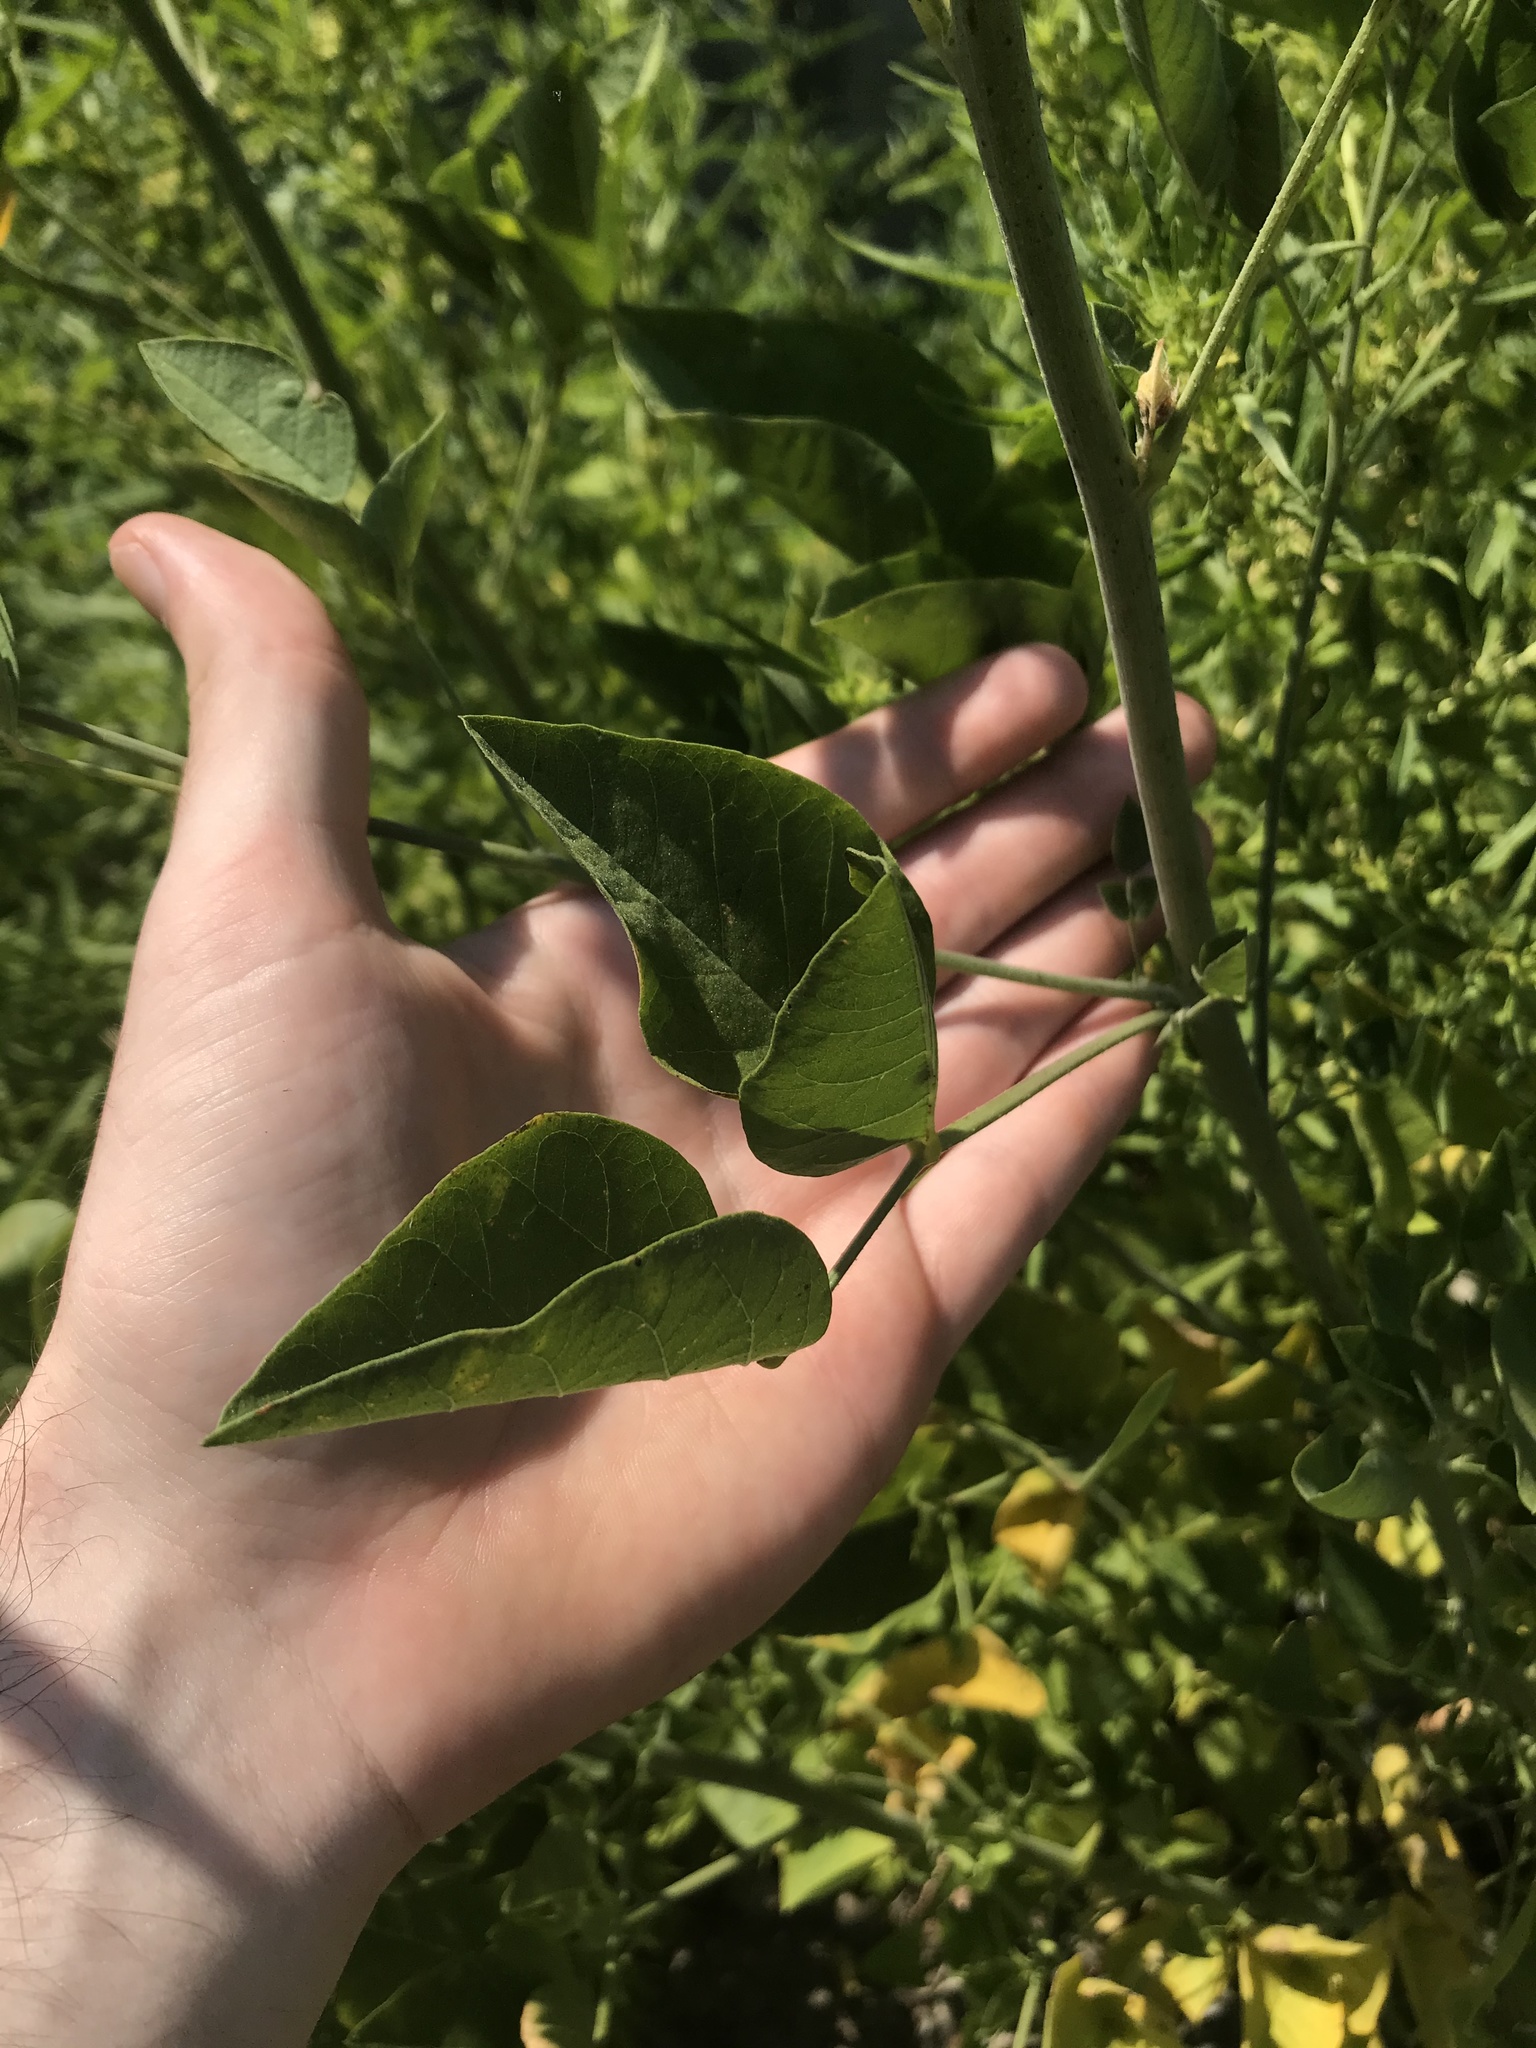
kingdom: Plantae
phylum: Tracheophyta
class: Magnoliopsida
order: Fabales
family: Fabaceae
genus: Hoita
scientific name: Hoita macrostachya
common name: Leatherroot
